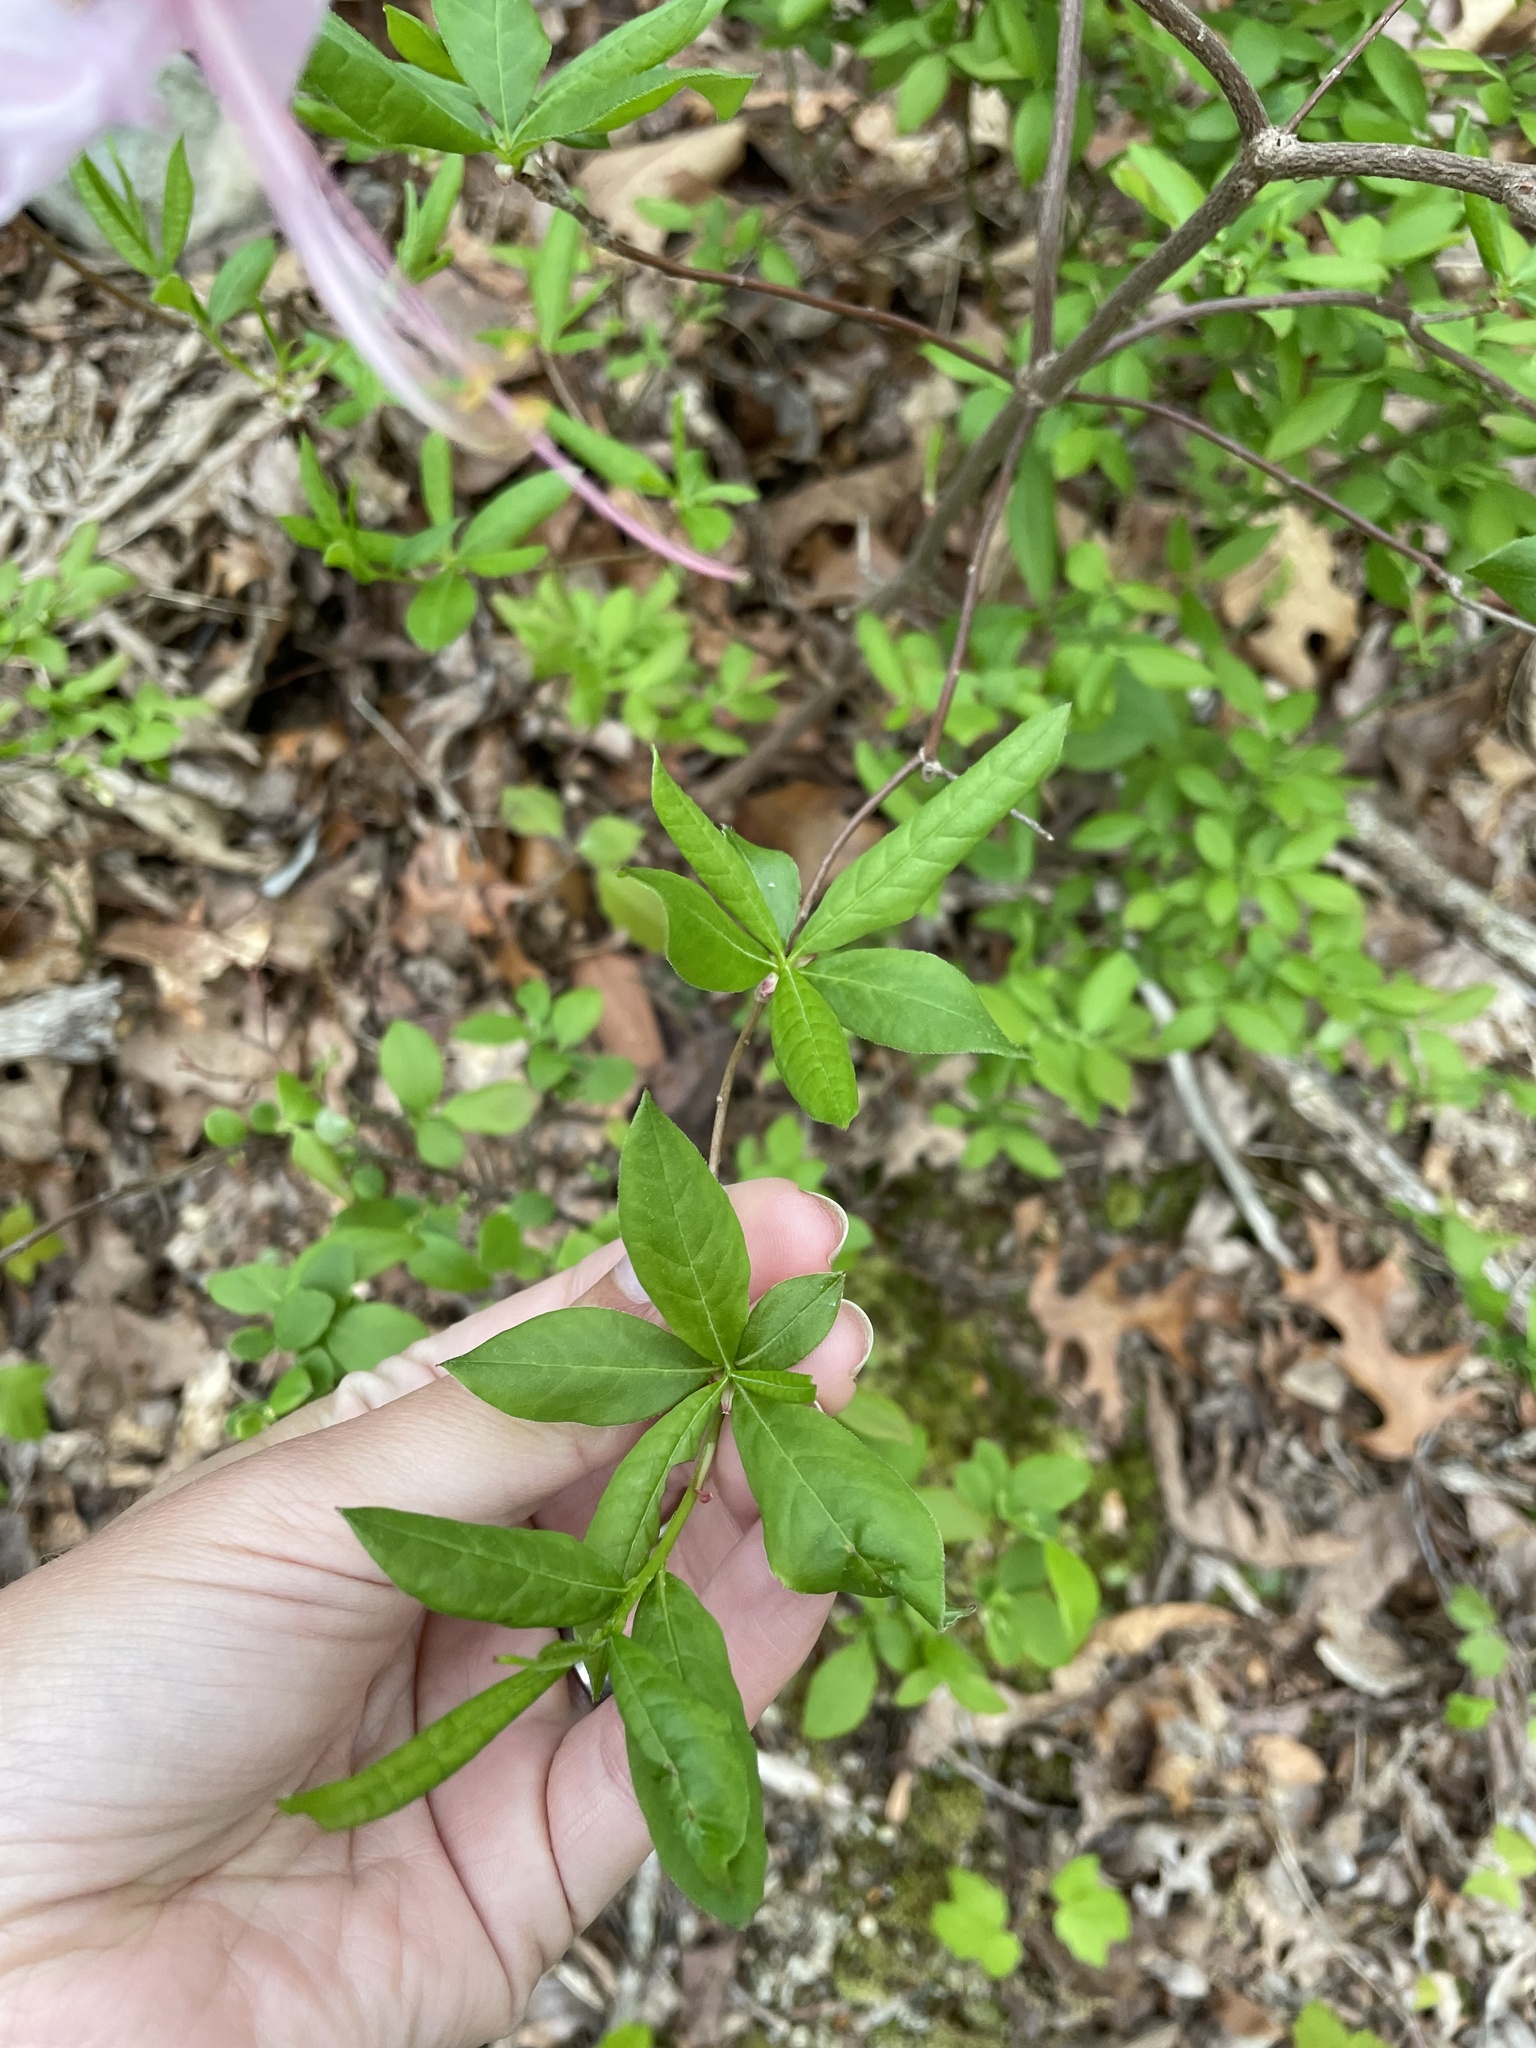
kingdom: Plantae
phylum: Tracheophyta
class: Magnoliopsida
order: Ericales
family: Ericaceae
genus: Rhododendron
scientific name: Rhododendron periclymenoides
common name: Election-pink
